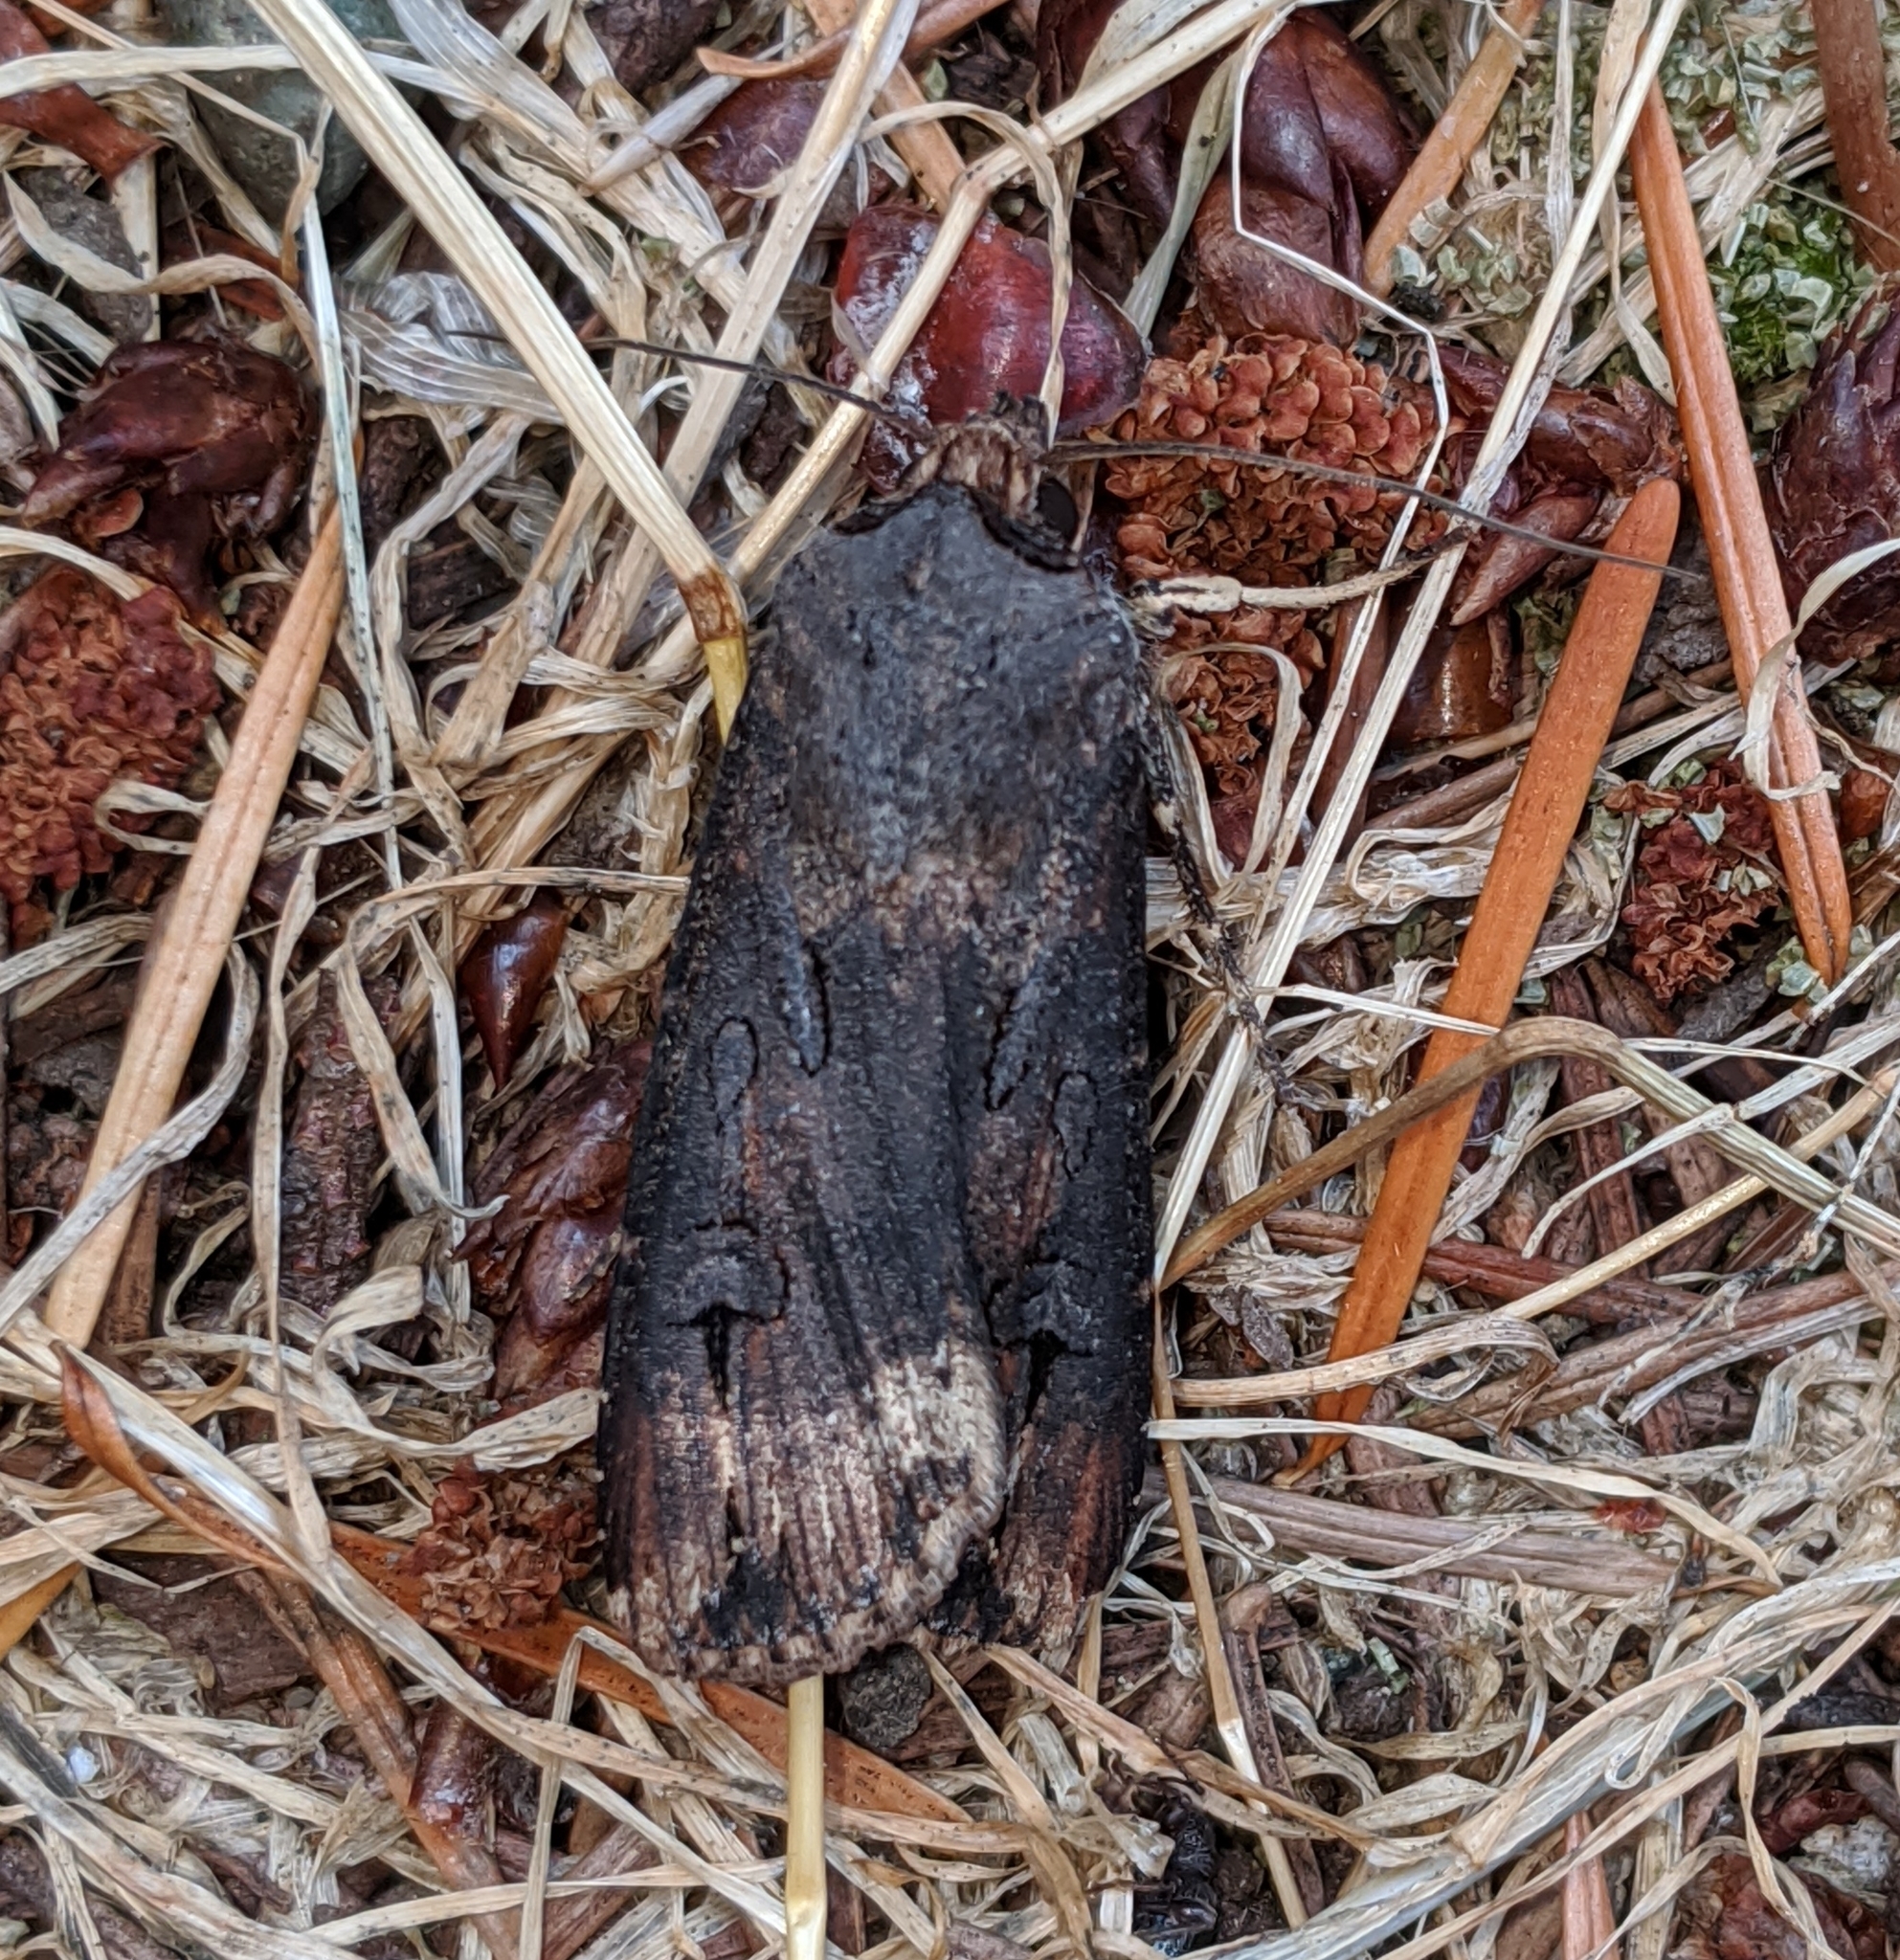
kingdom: Animalia
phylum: Arthropoda
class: Insecta
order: Lepidoptera
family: Noctuidae
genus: Agrotis
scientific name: Agrotis ipsilon
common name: Dark sword-grass
